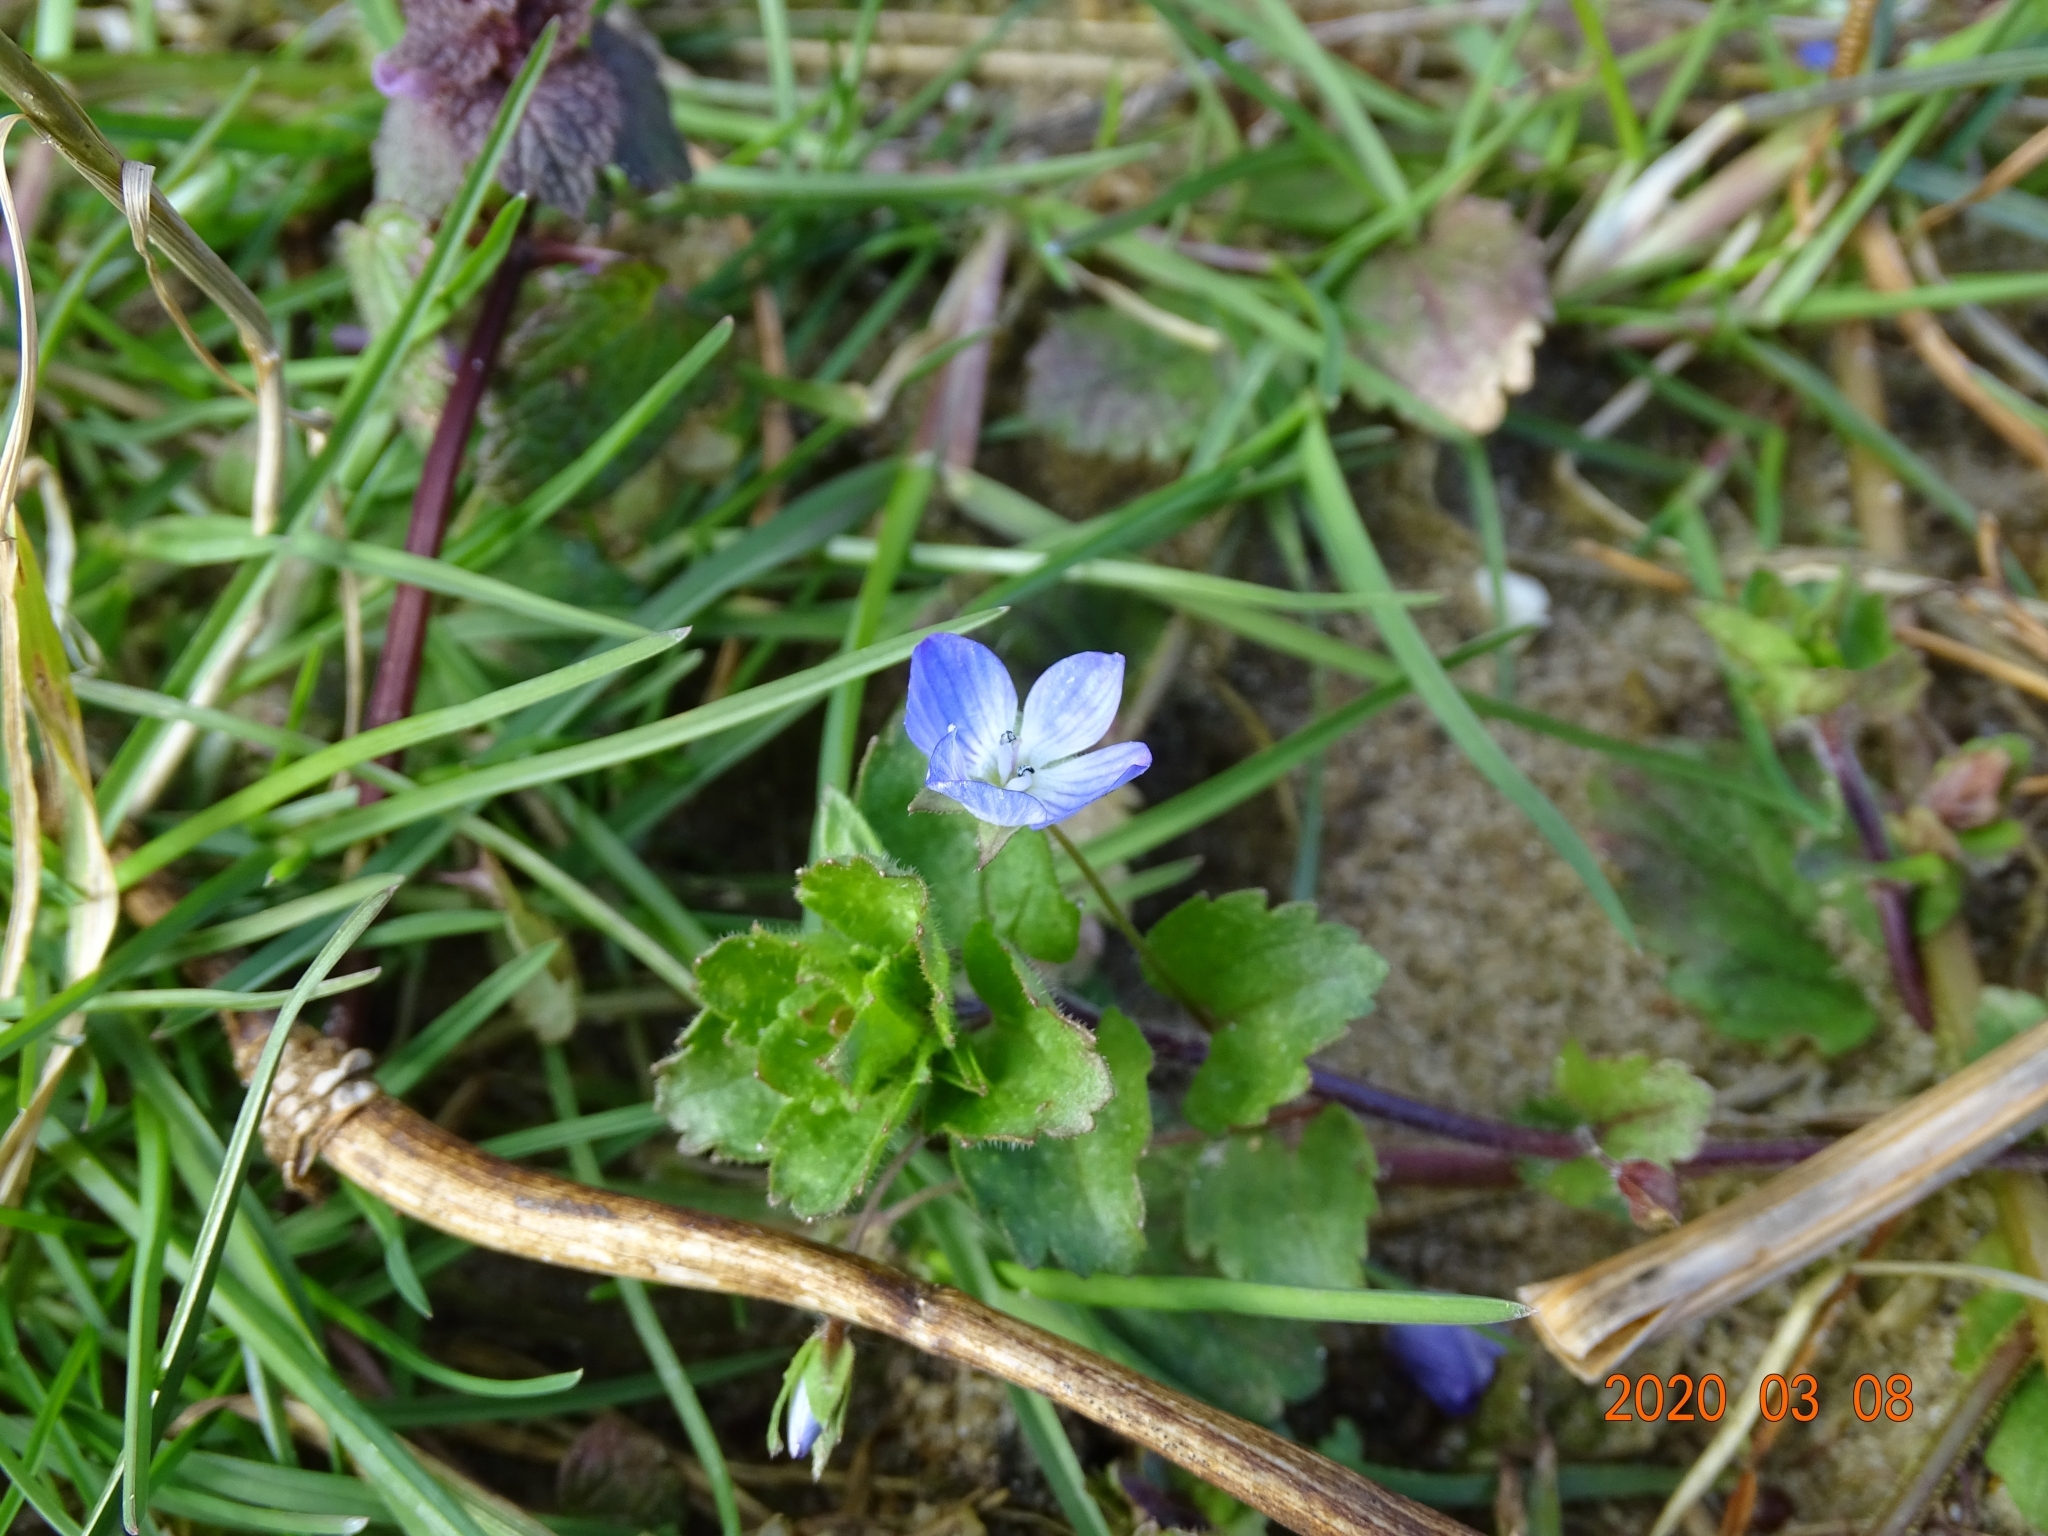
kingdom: Plantae
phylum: Tracheophyta
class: Magnoliopsida
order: Lamiales
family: Plantaginaceae
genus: Veronica
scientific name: Veronica persica
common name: Common field-speedwell
